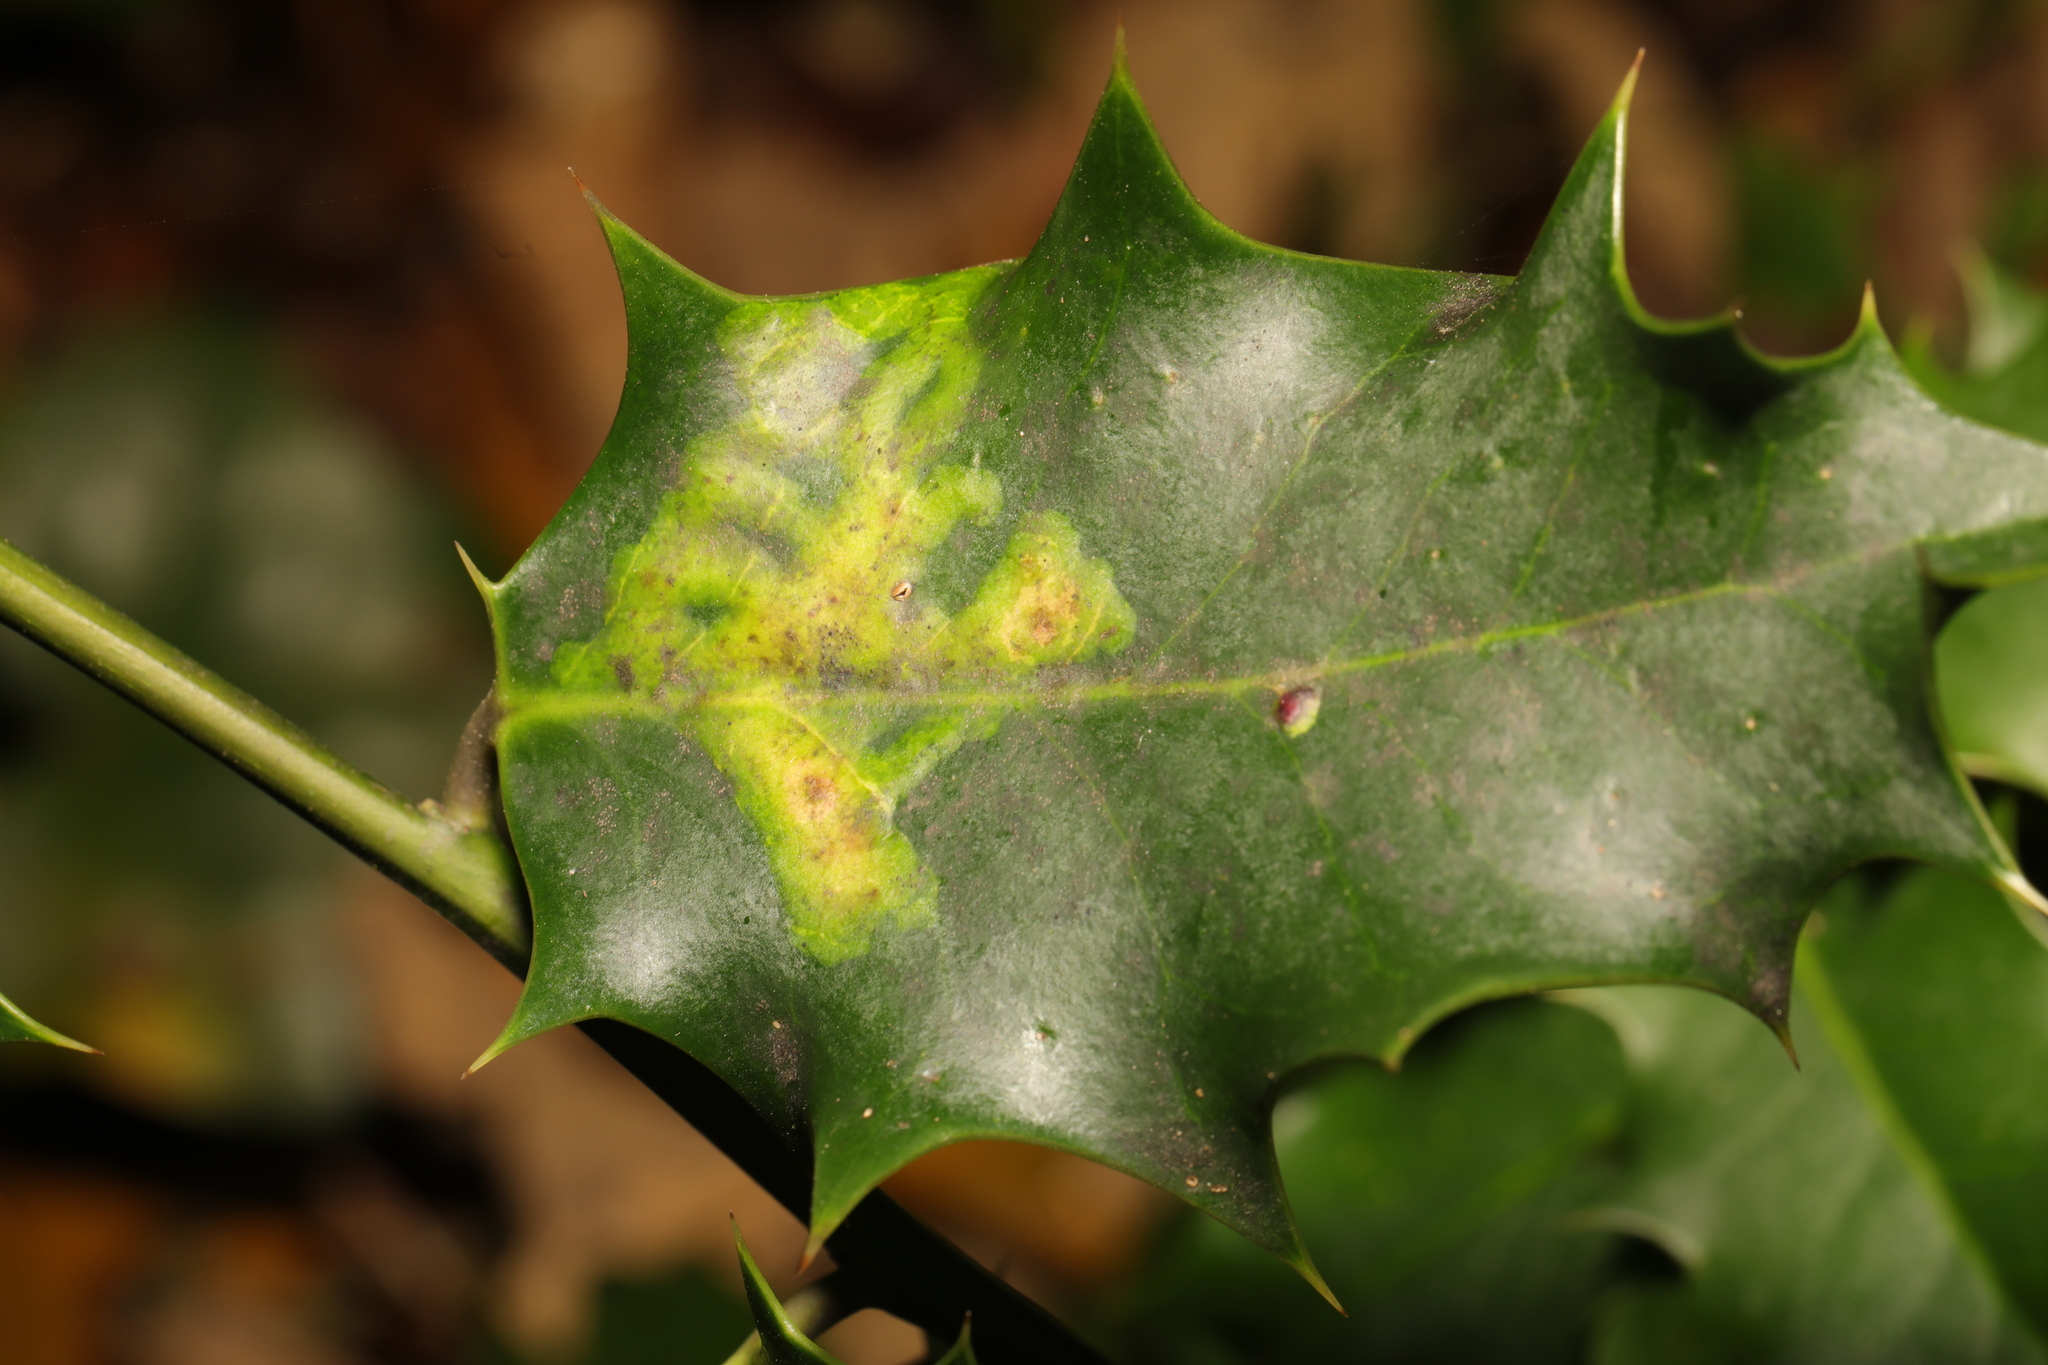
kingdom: Animalia
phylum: Arthropoda
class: Insecta
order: Diptera
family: Agromyzidae
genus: Phytomyza
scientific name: Phytomyza ilicis
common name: Holly leafminer
